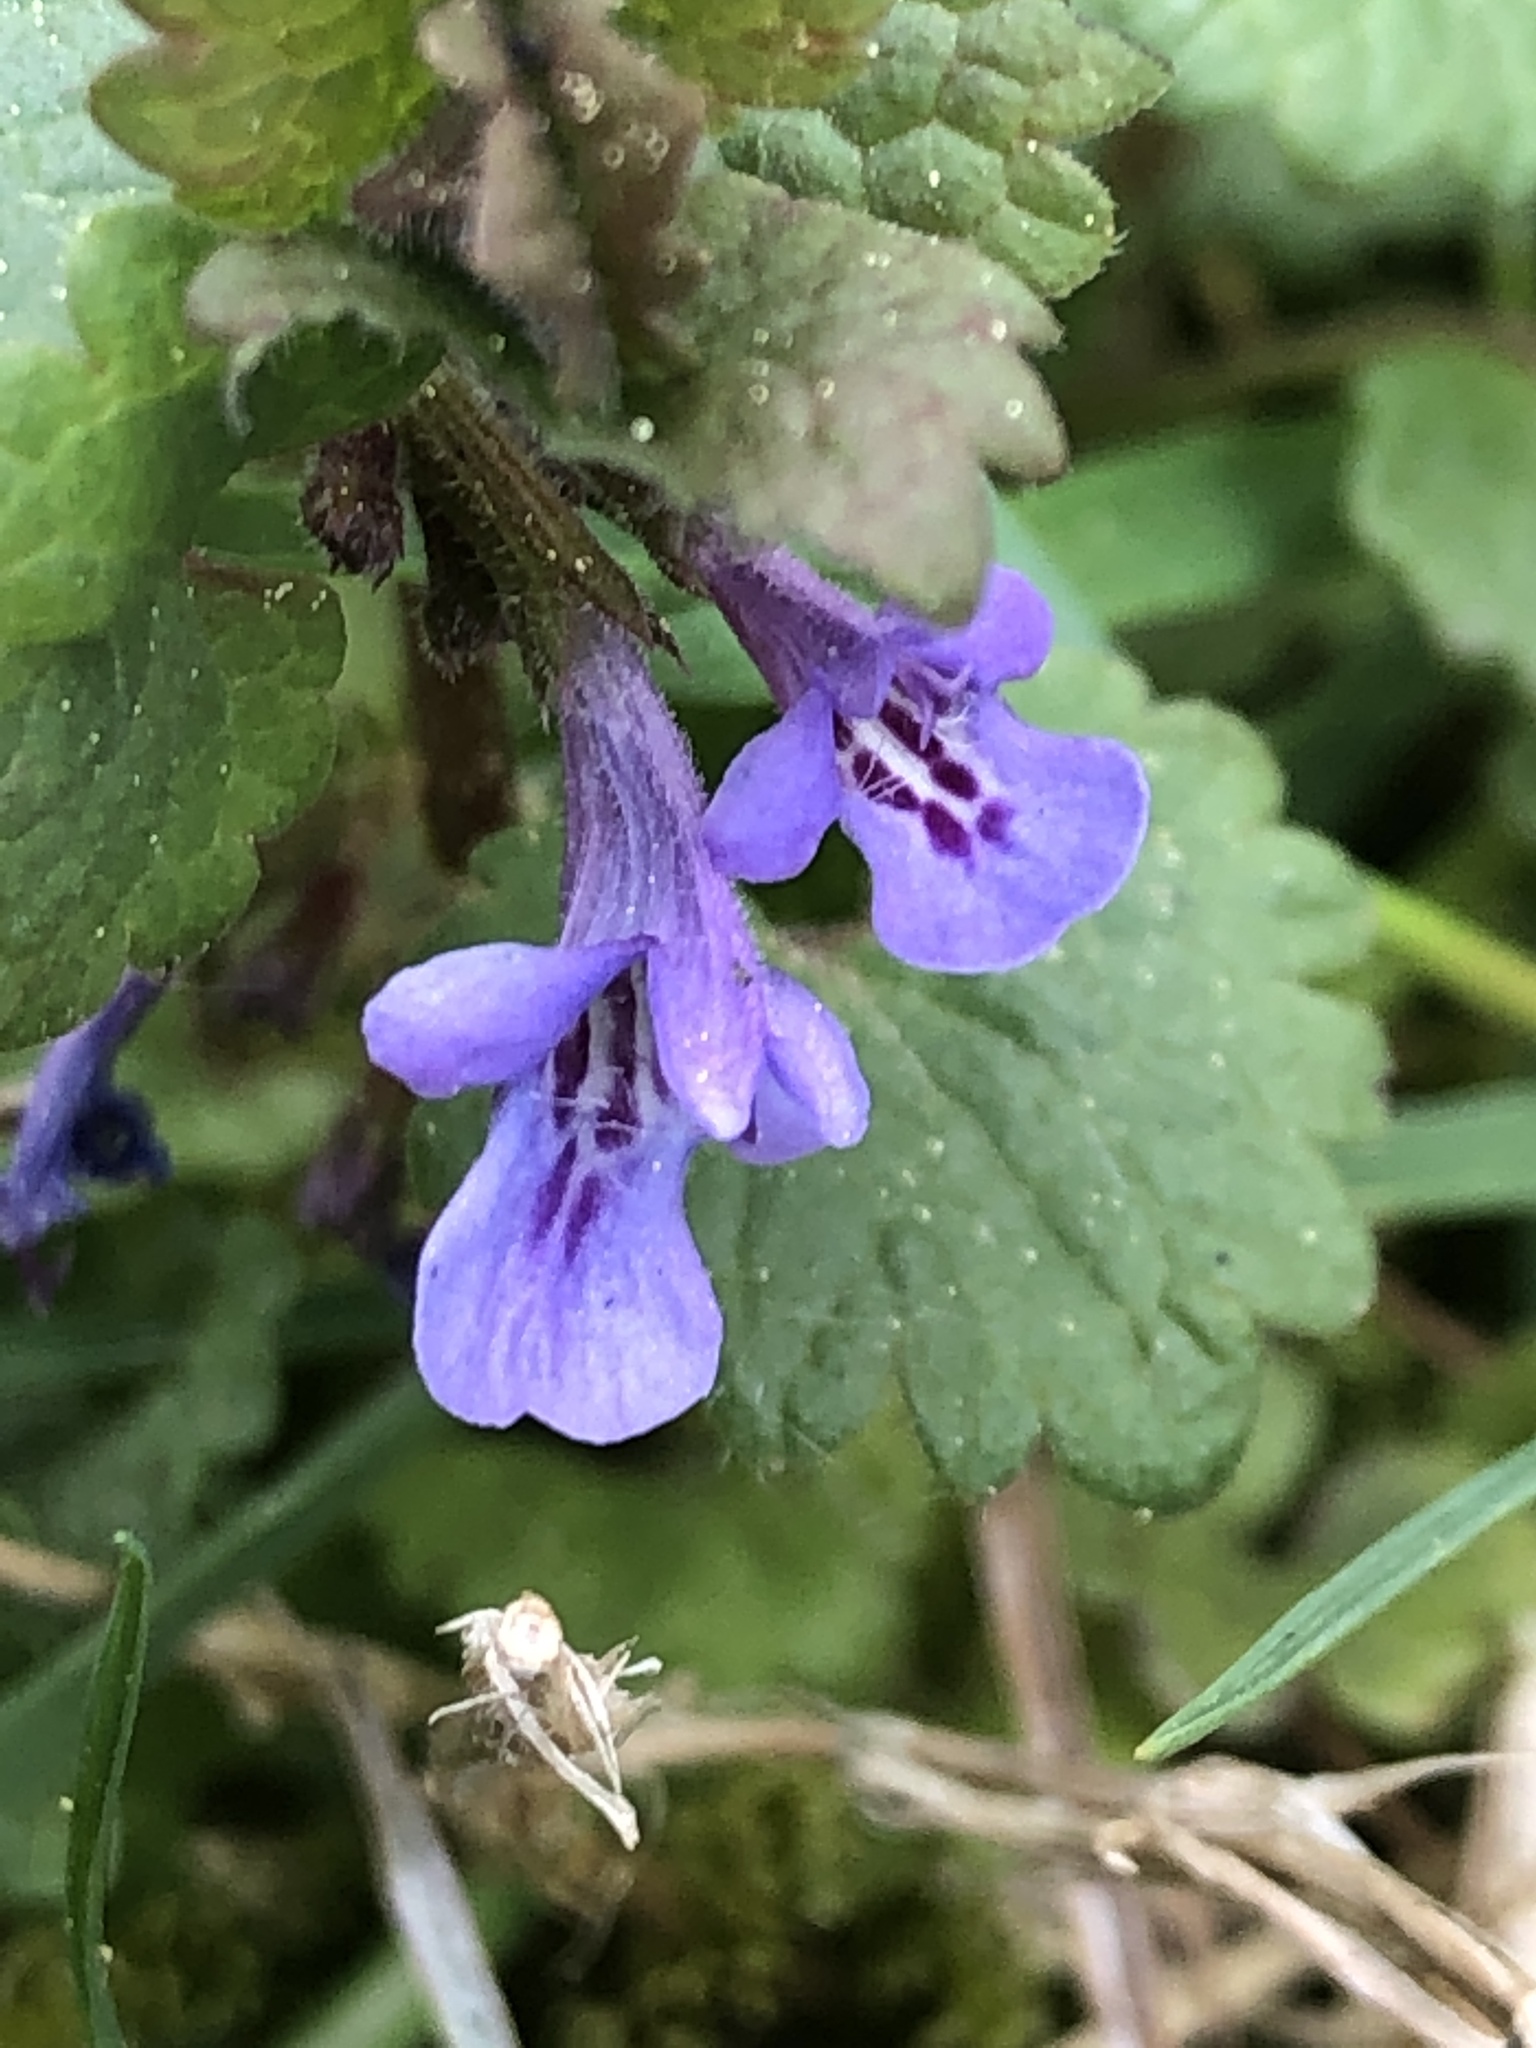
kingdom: Plantae
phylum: Tracheophyta
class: Magnoliopsida
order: Lamiales
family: Lamiaceae
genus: Glechoma
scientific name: Glechoma hederacea
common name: Ground ivy
